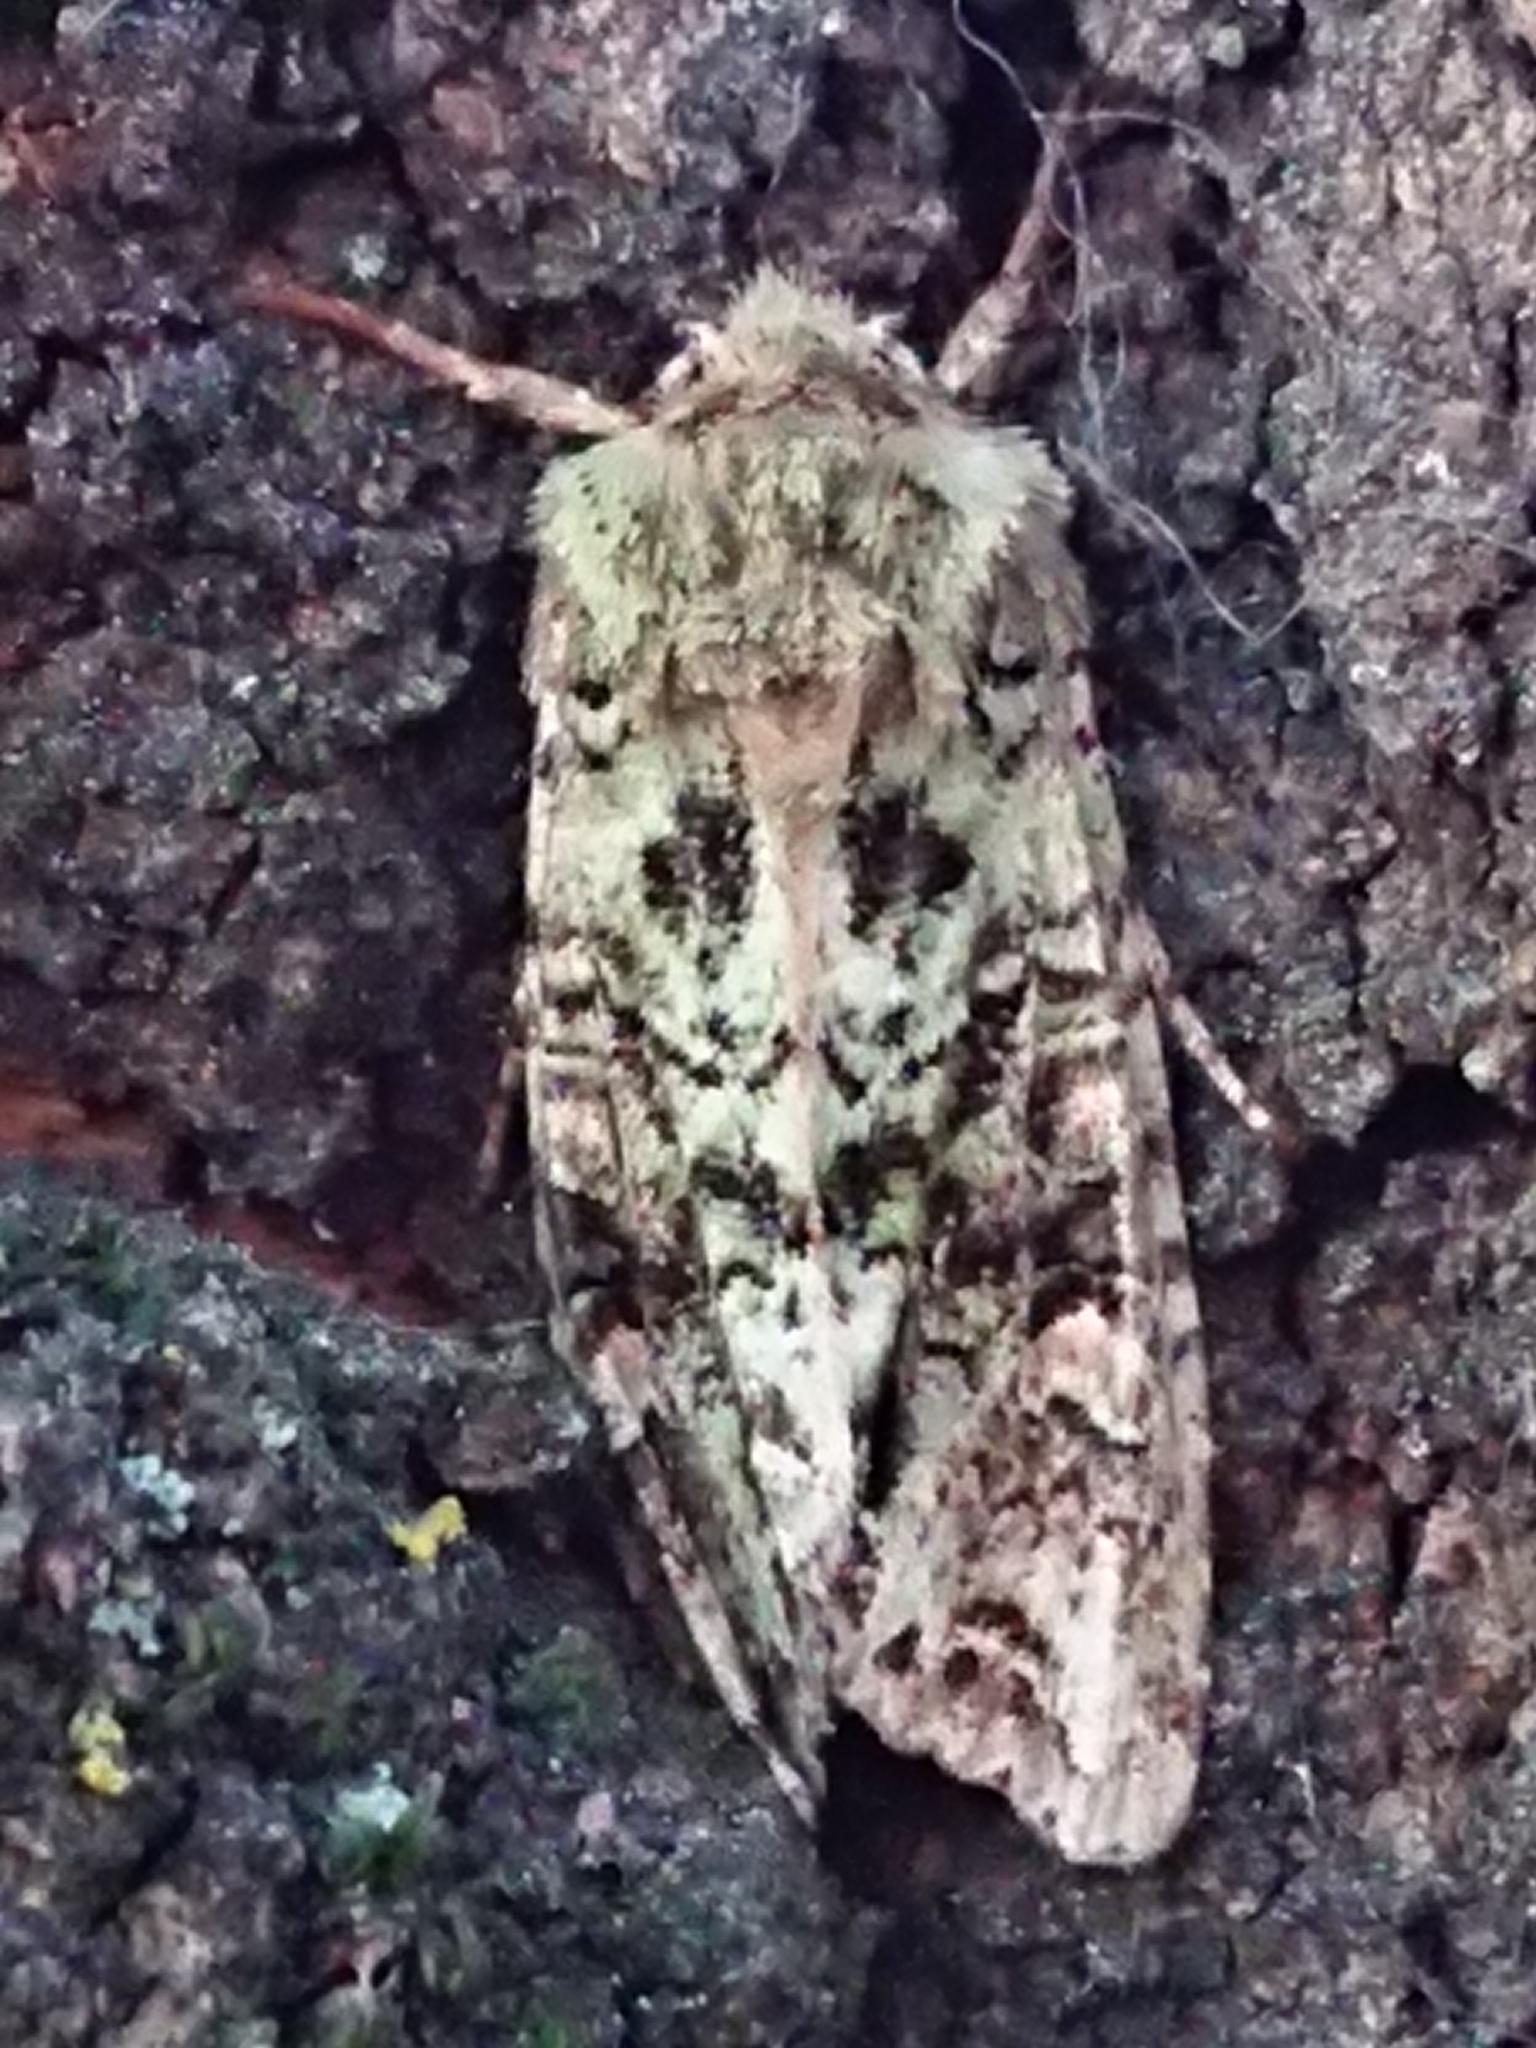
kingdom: Animalia
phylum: Arthropoda
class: Insecta
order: Lepidoptera
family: Noctuidae
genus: Ichneutica
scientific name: Ichneutica
